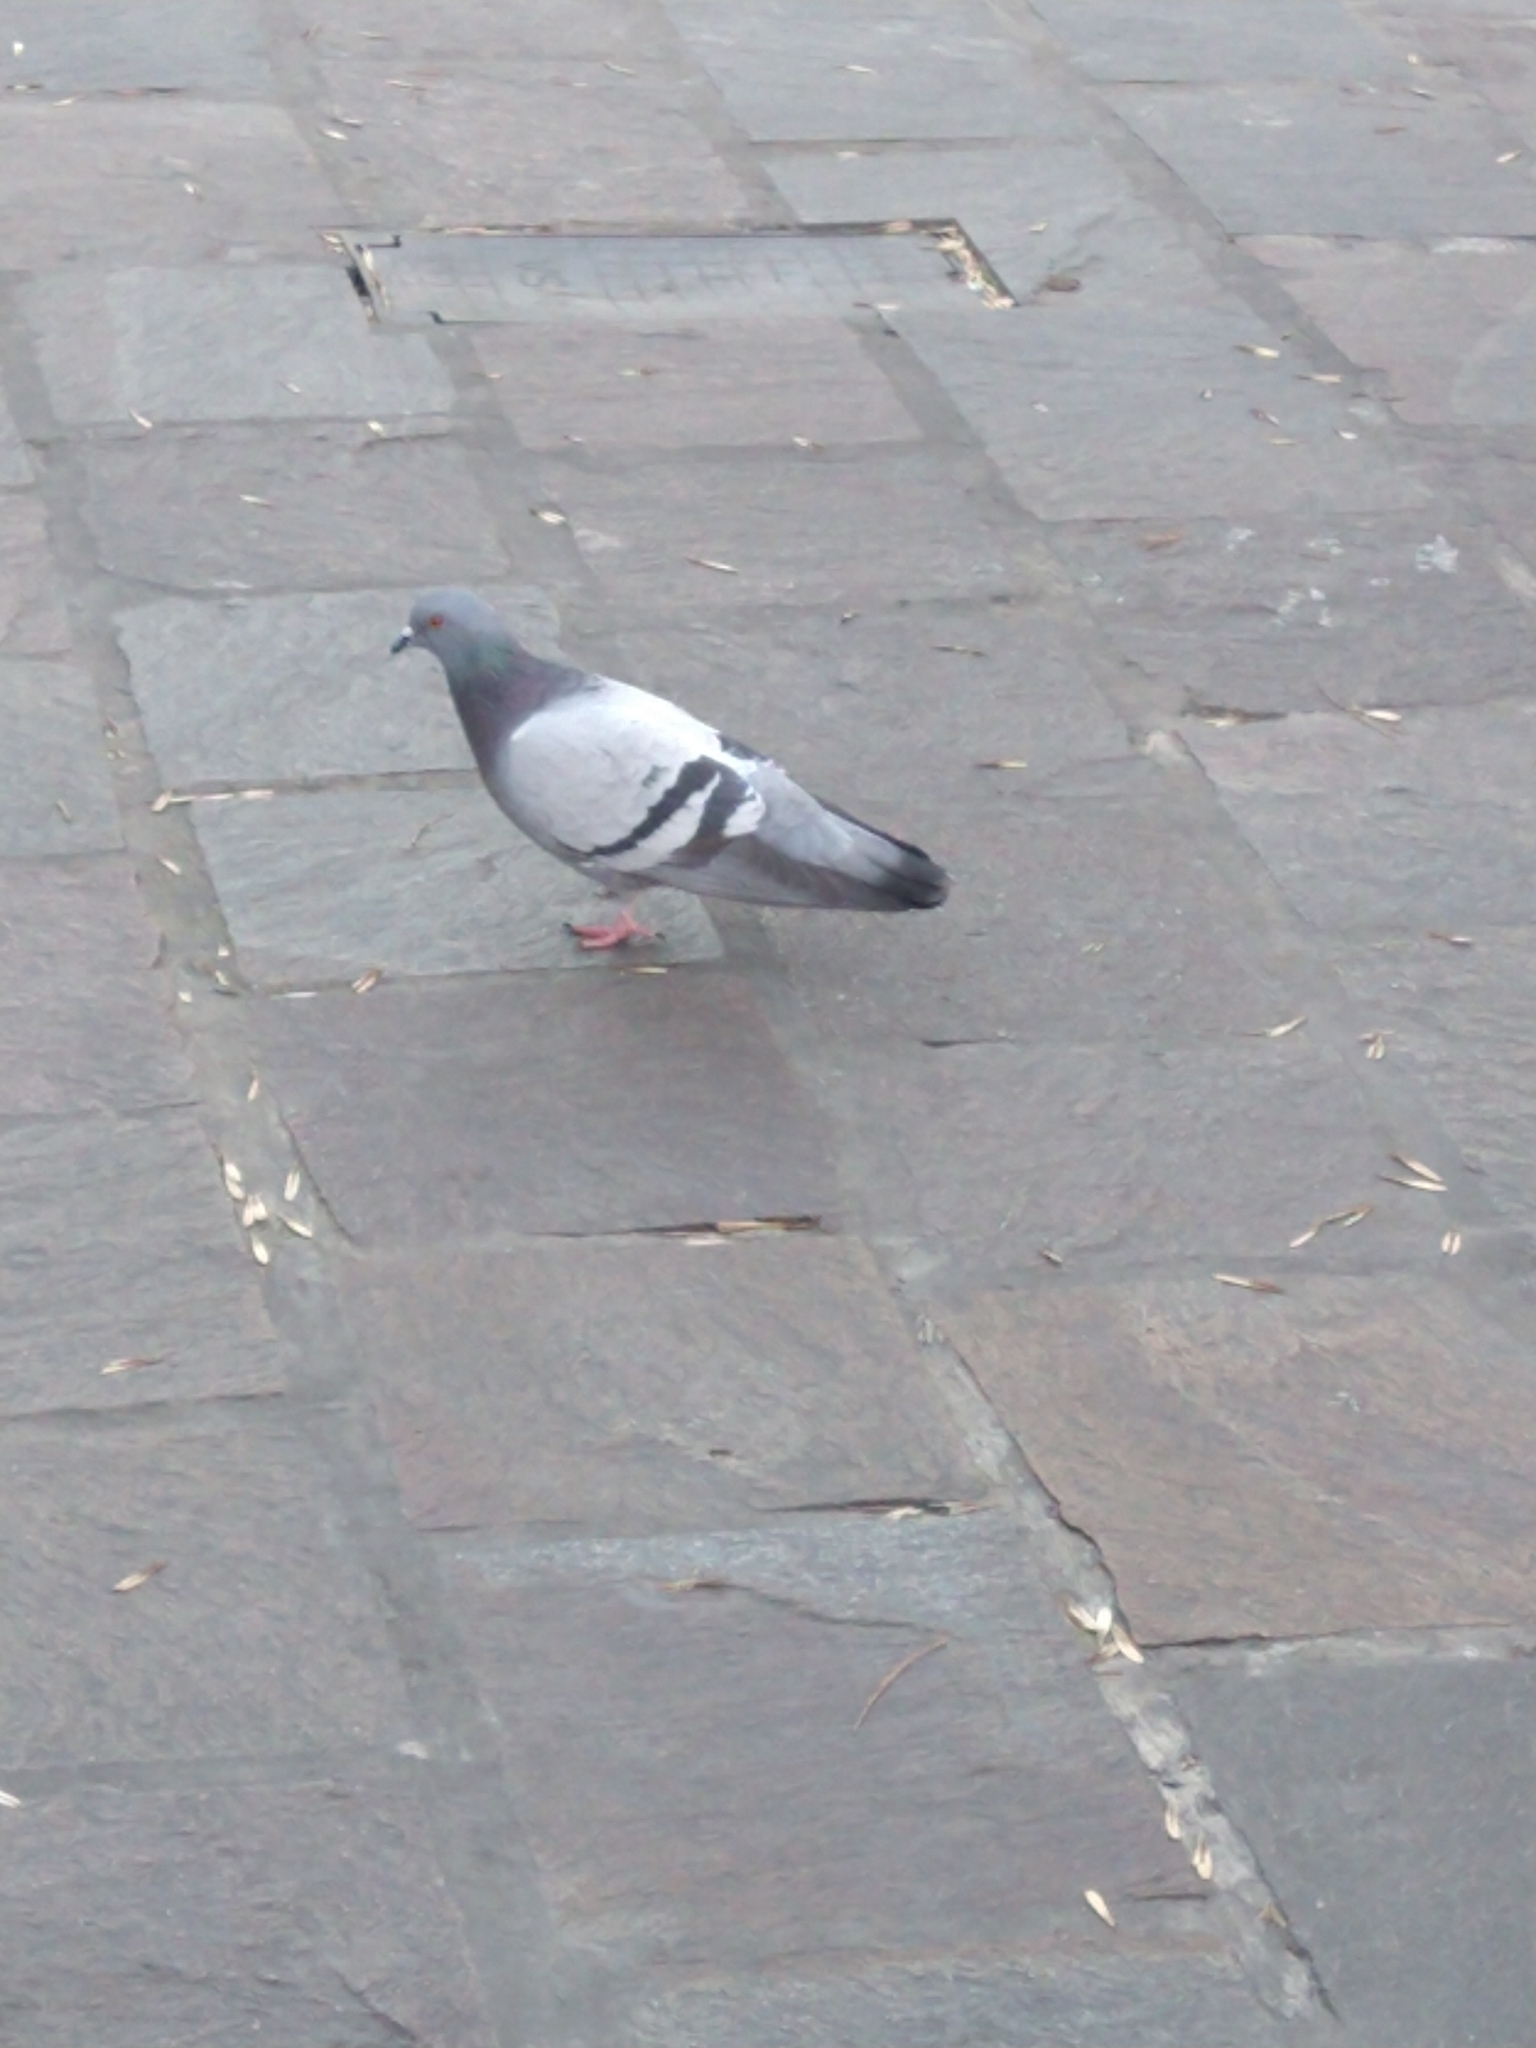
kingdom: Animalia
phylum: Chordata
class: Aves
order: Columbiformes
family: Columbidae
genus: Columba
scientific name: Columba livia
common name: Rock pigeon
